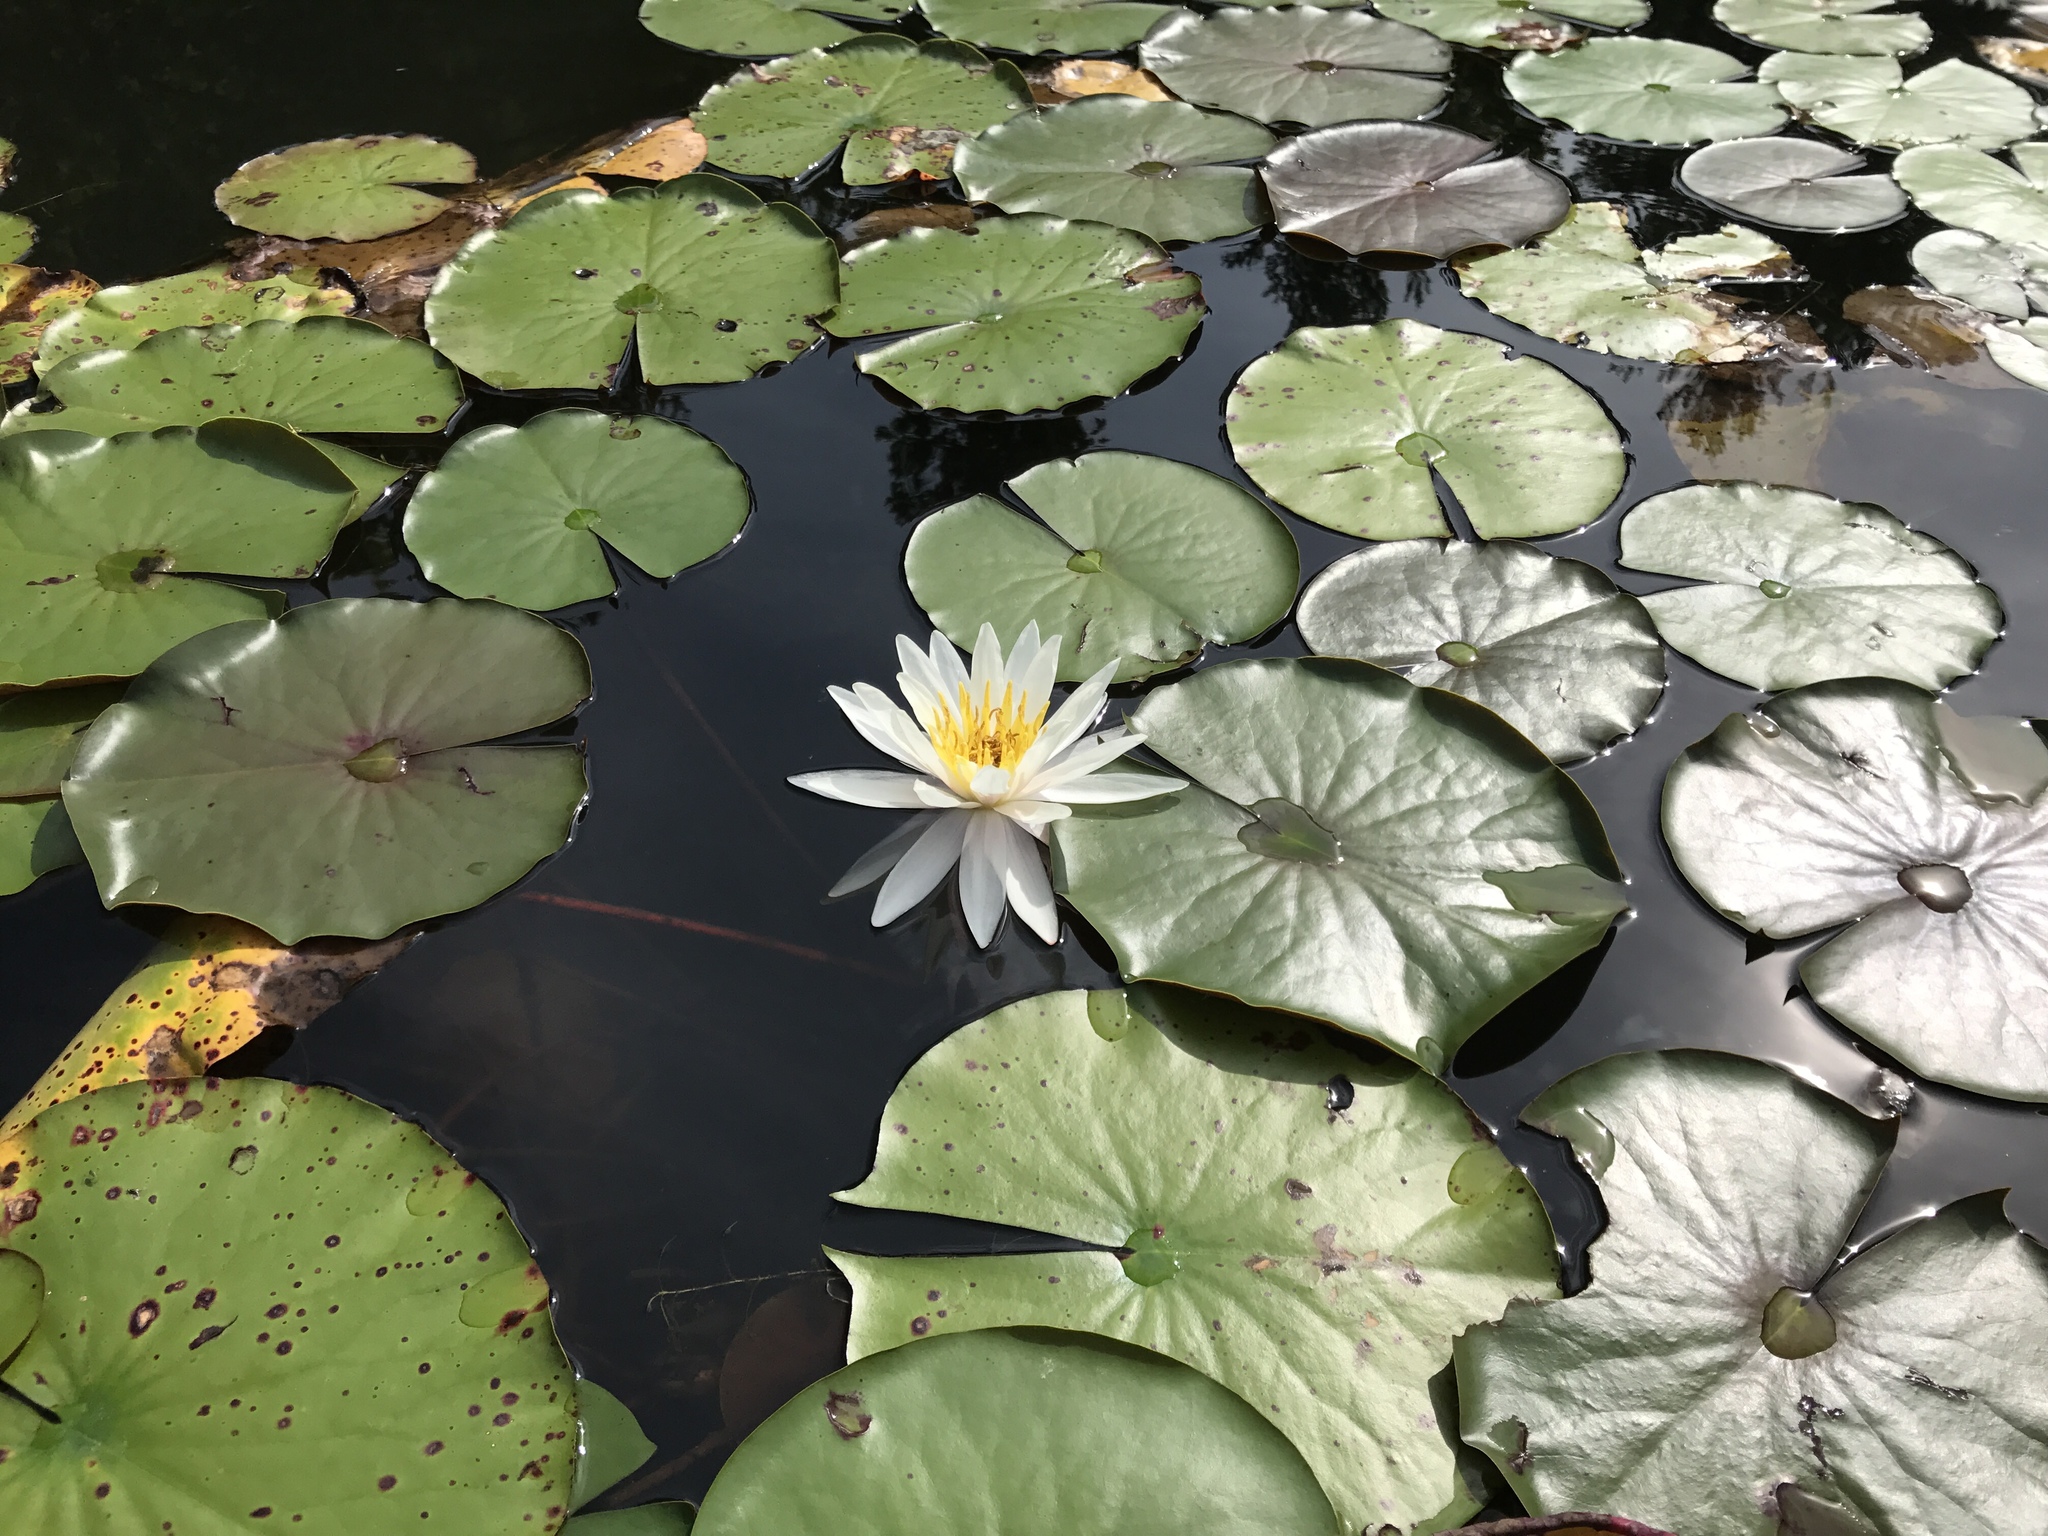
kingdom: Plantae
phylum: Tracheophyta
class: Magnoliopsida
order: Nymphaeales
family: Nymphaeaceae
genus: Nymphaea
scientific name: Nymphaea odorata
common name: Fragrant water-lily
